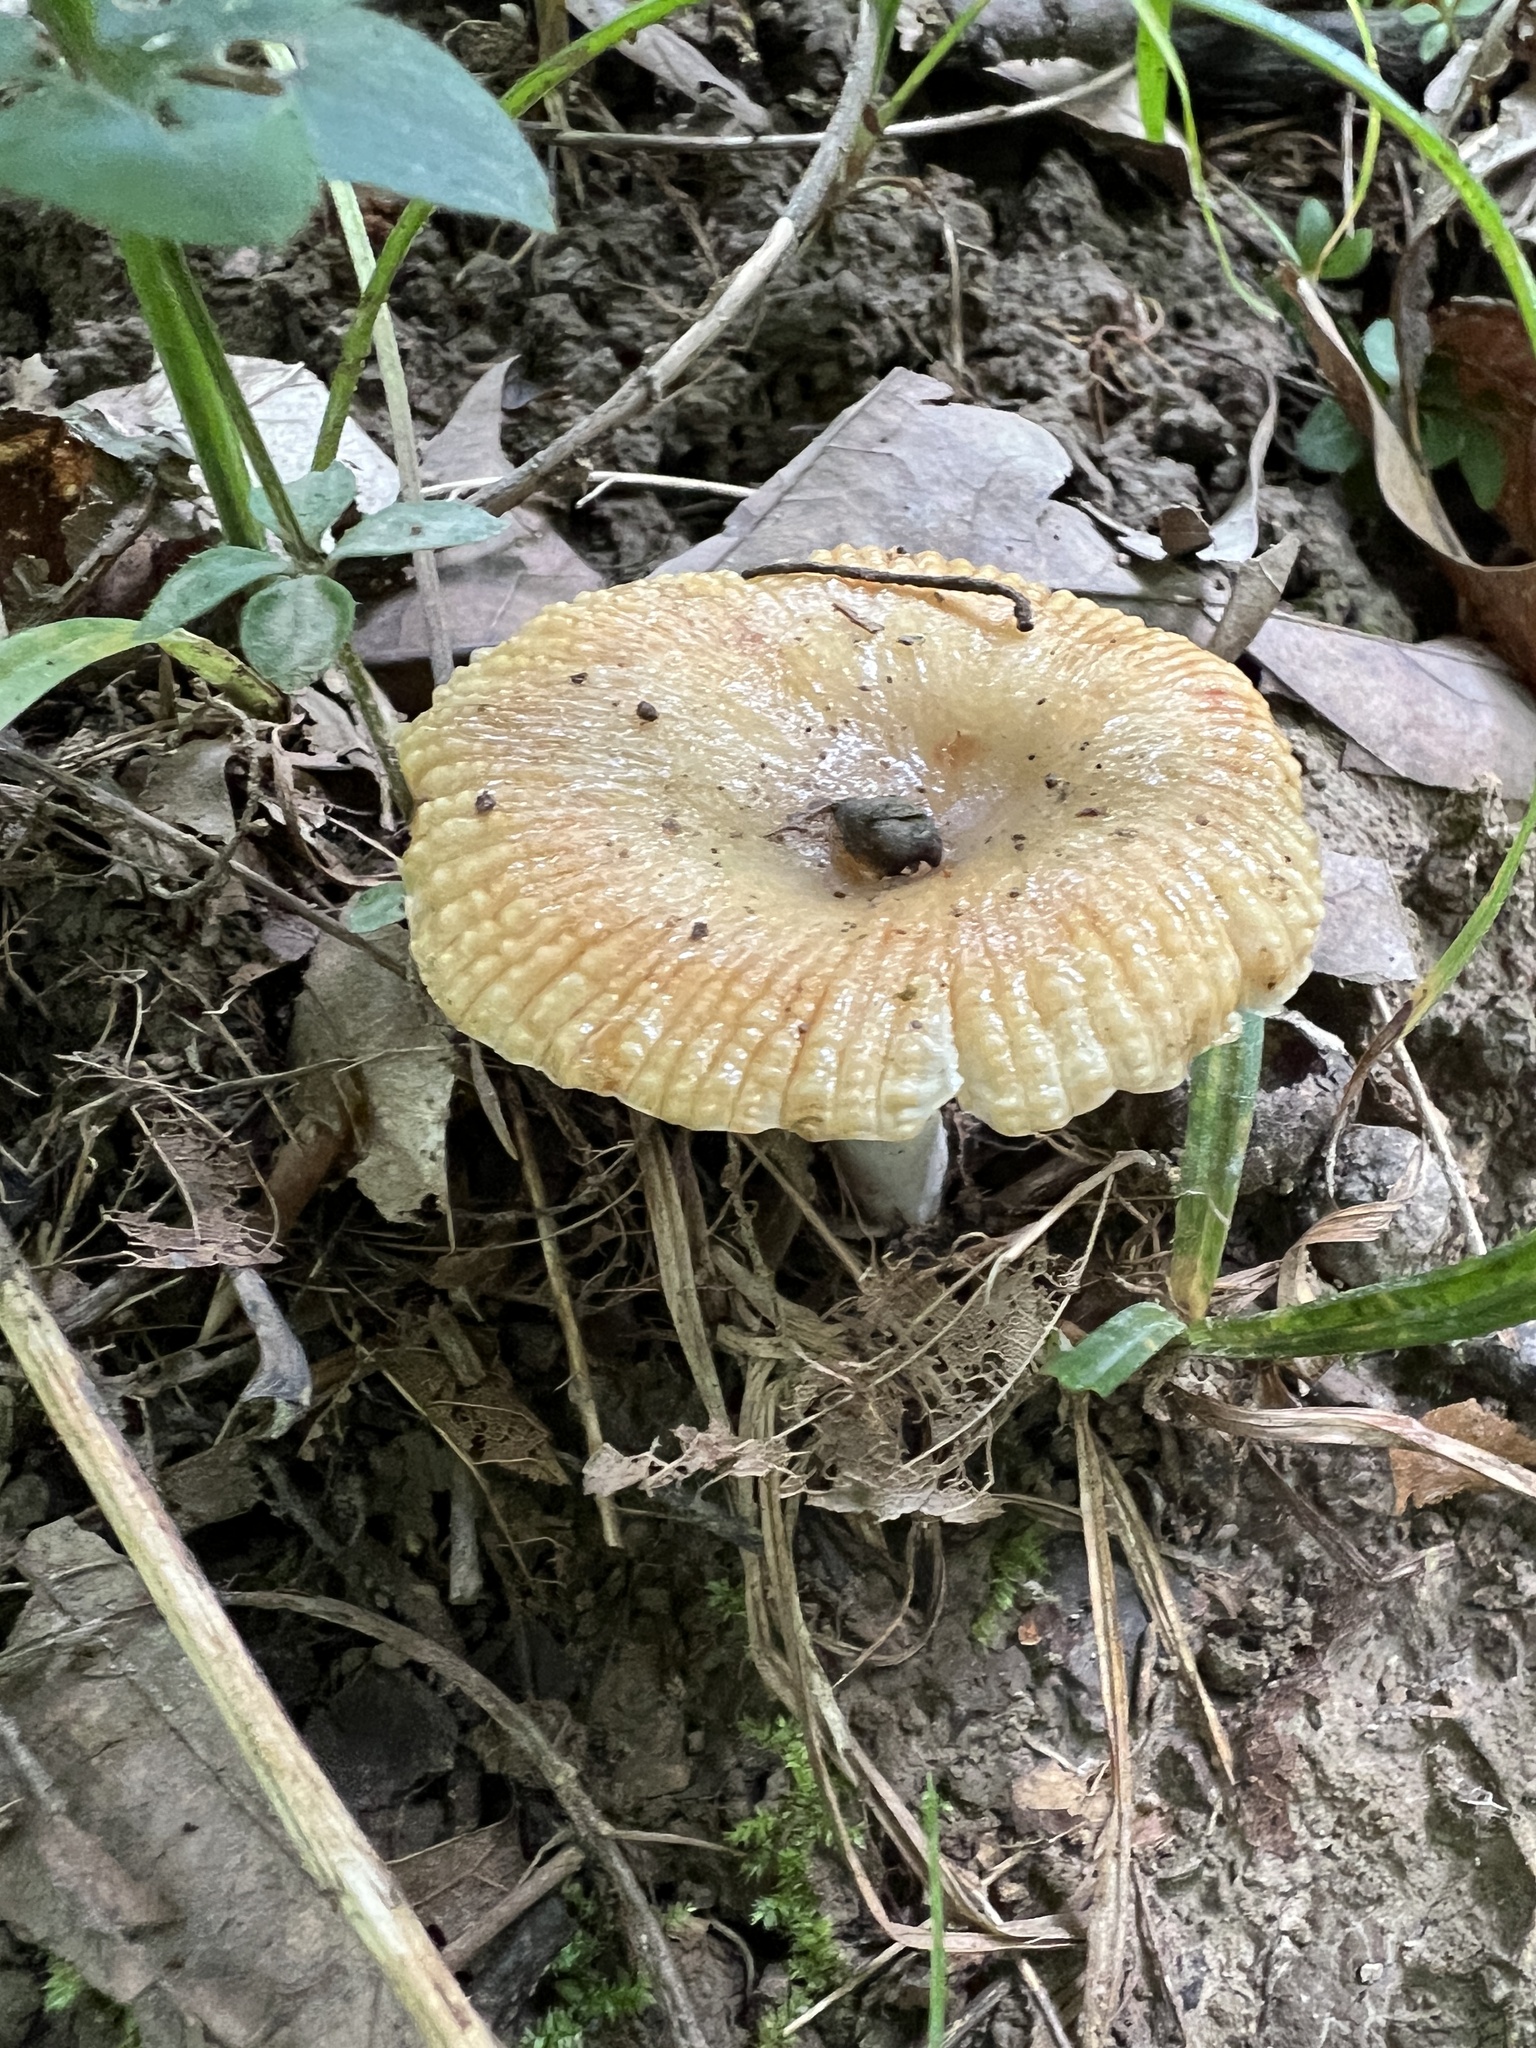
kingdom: Fungi
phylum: Basidiomycota
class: Agaricomycetes
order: Russulales
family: Russulaceae
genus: Russula
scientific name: Russula pectinatoides
